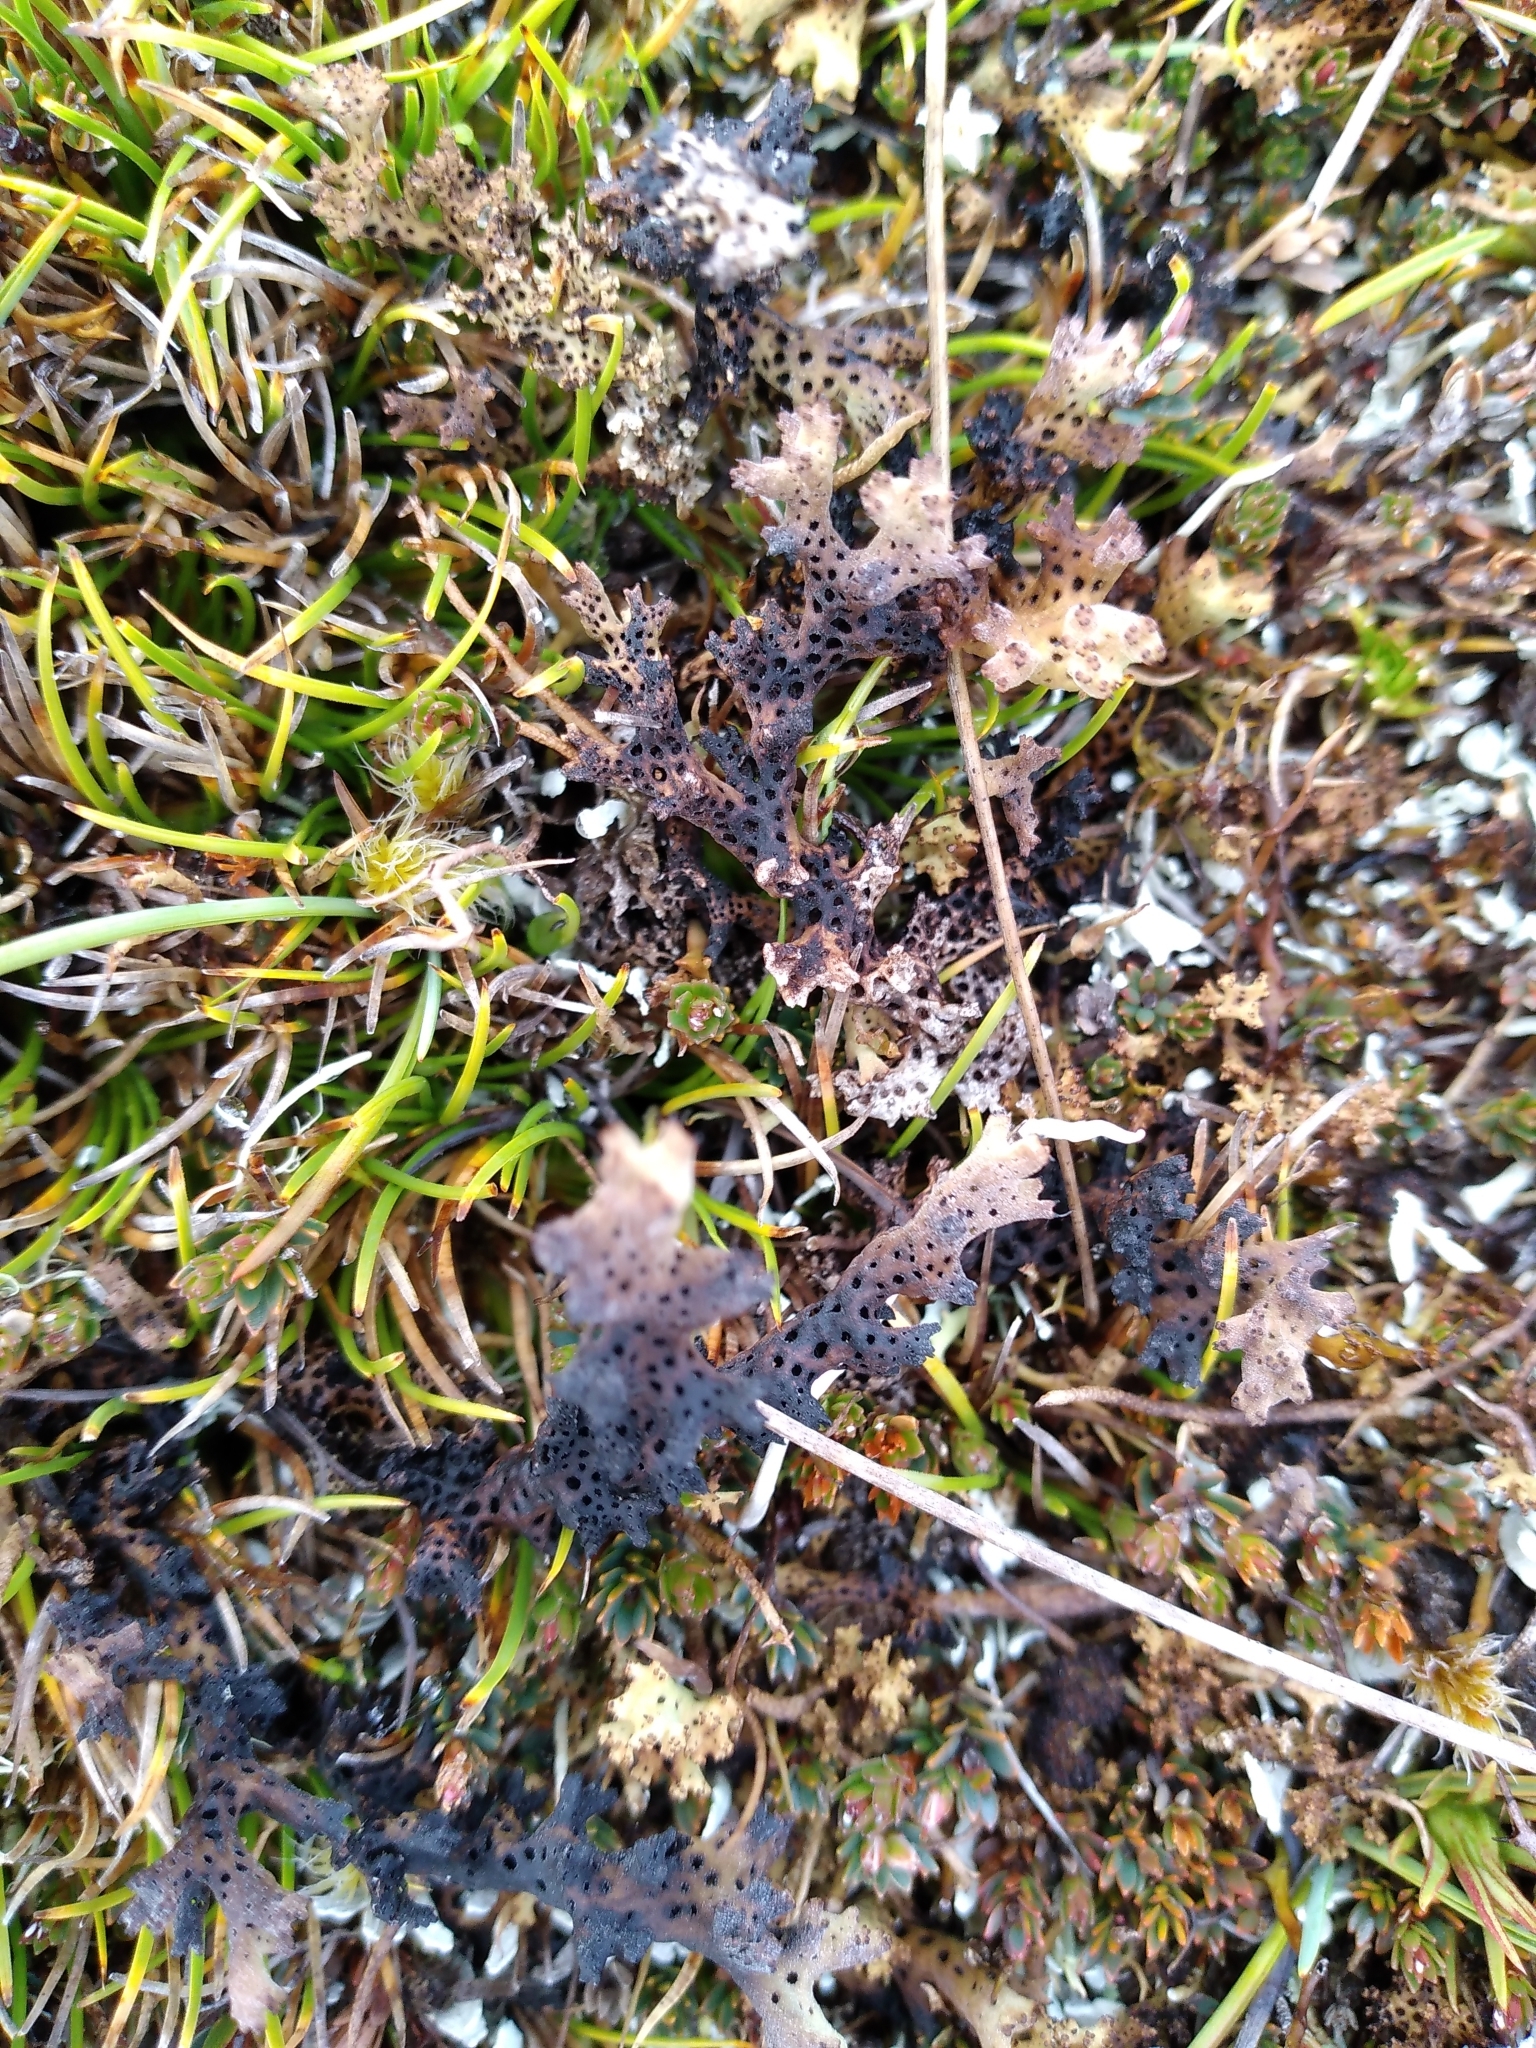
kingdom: Fungi
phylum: Ascomycota
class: Lecanoromycetes
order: Lecanorales
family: Cladoniaceae
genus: Rexiella
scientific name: Rexiella sullivanii
